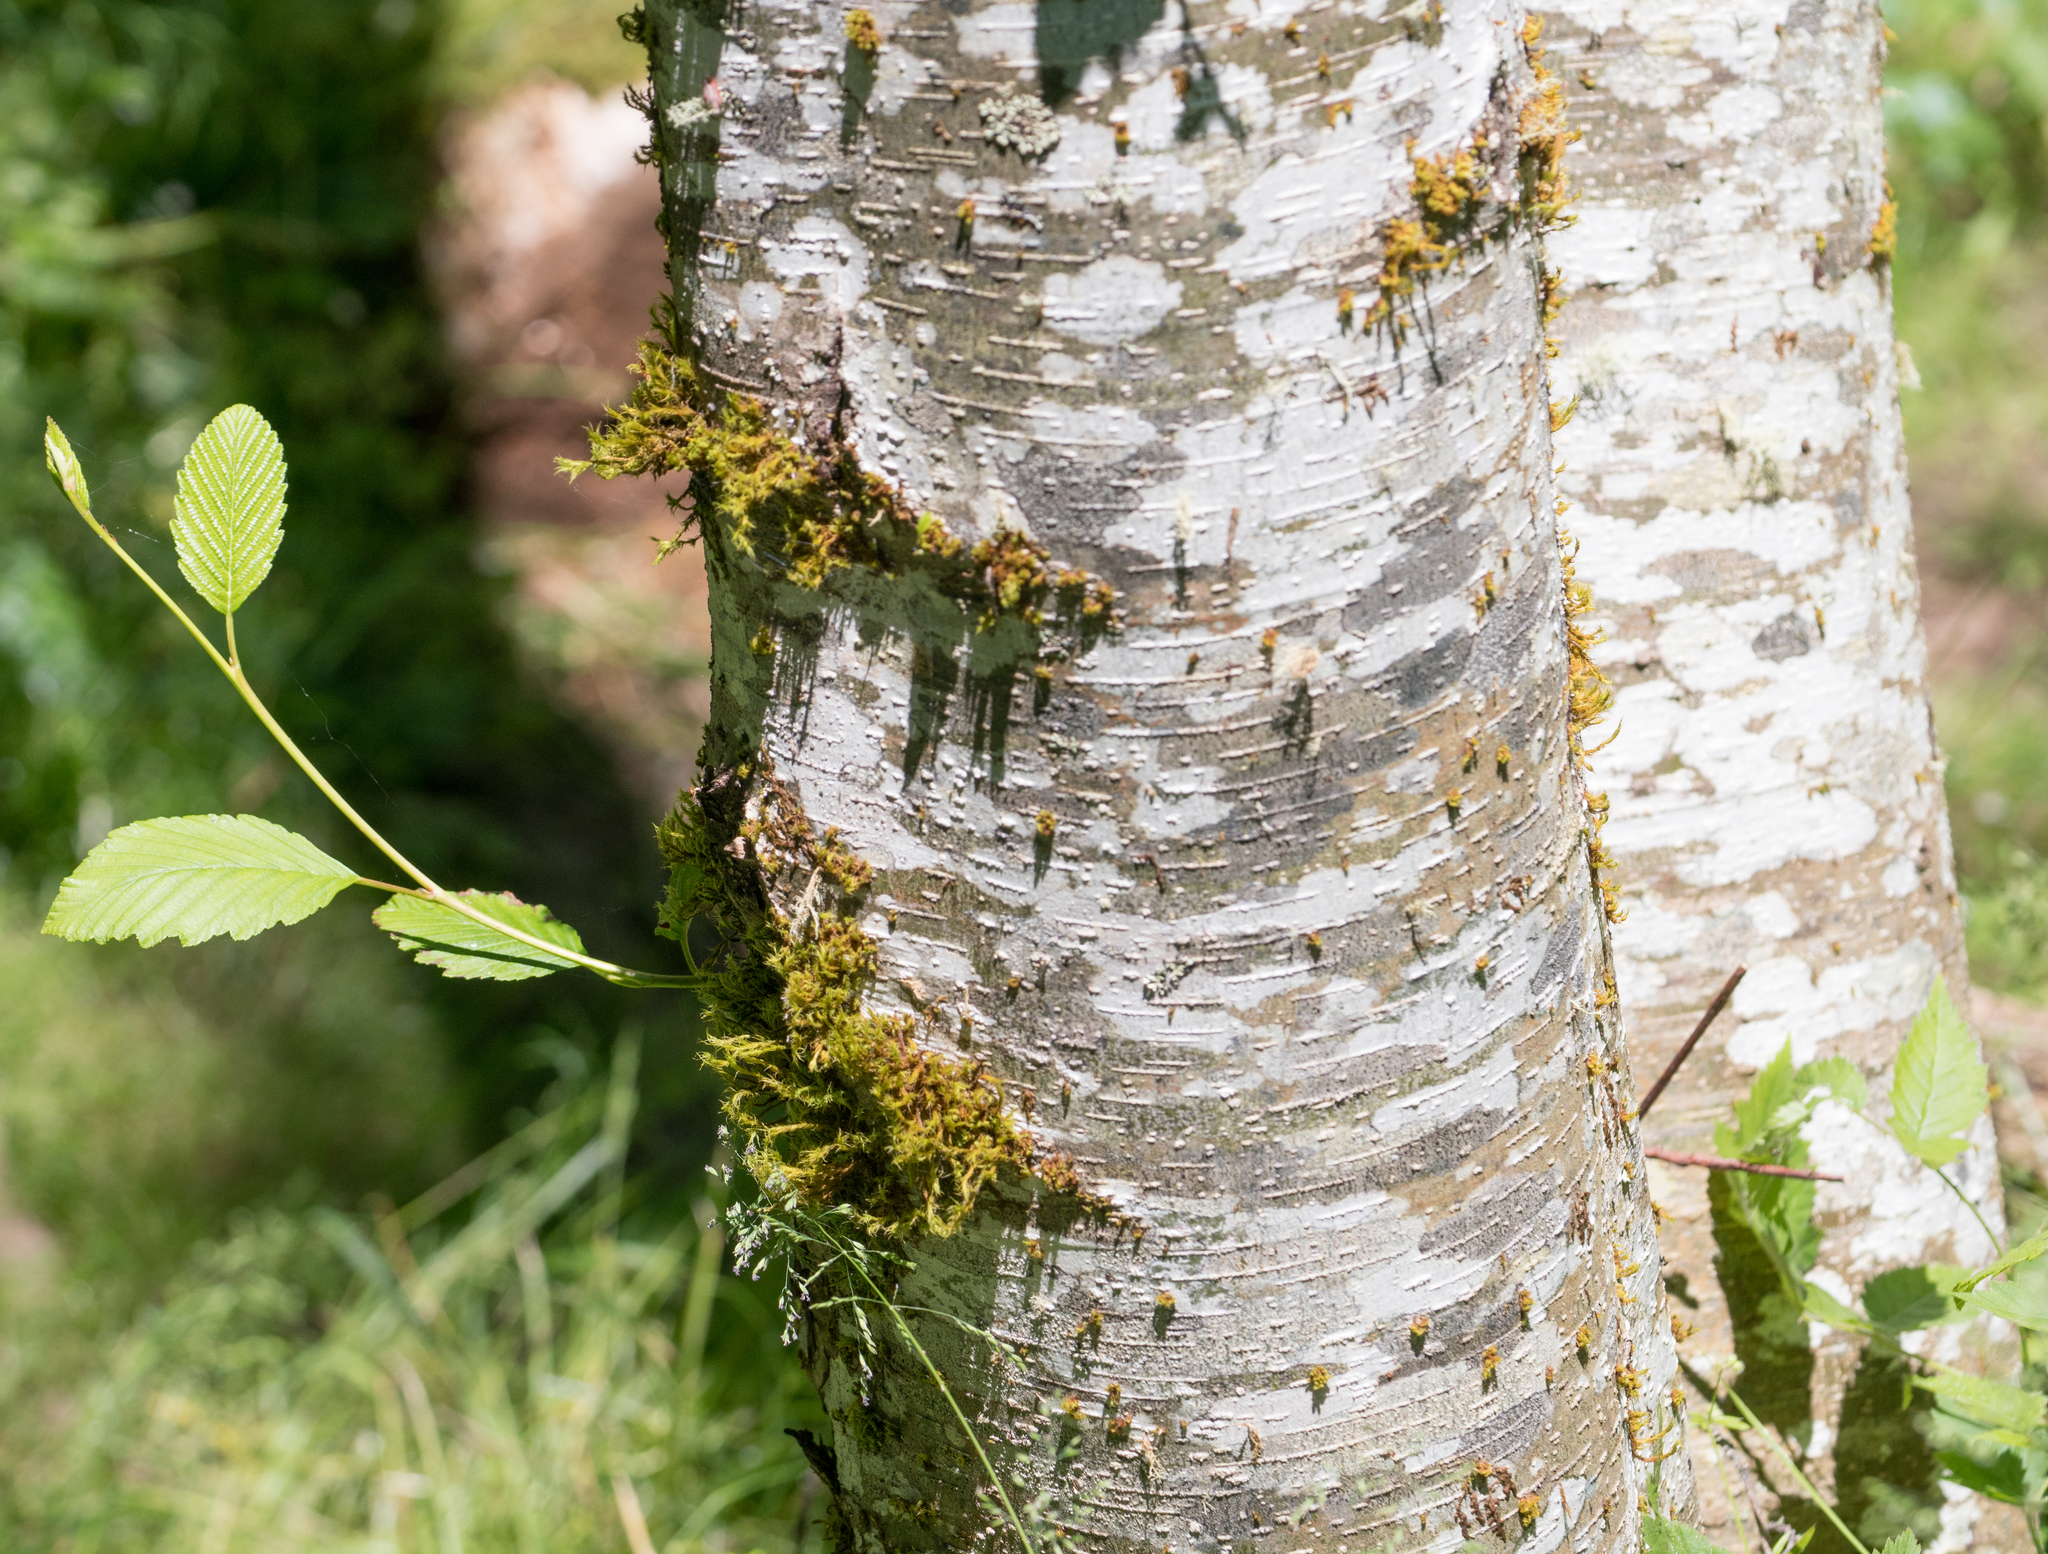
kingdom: Plantae
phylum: Tracheophyta
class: Magnoliopsida
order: Fagales
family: Betulaceae
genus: Alnus
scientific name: Alnus rubra
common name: Red alder
